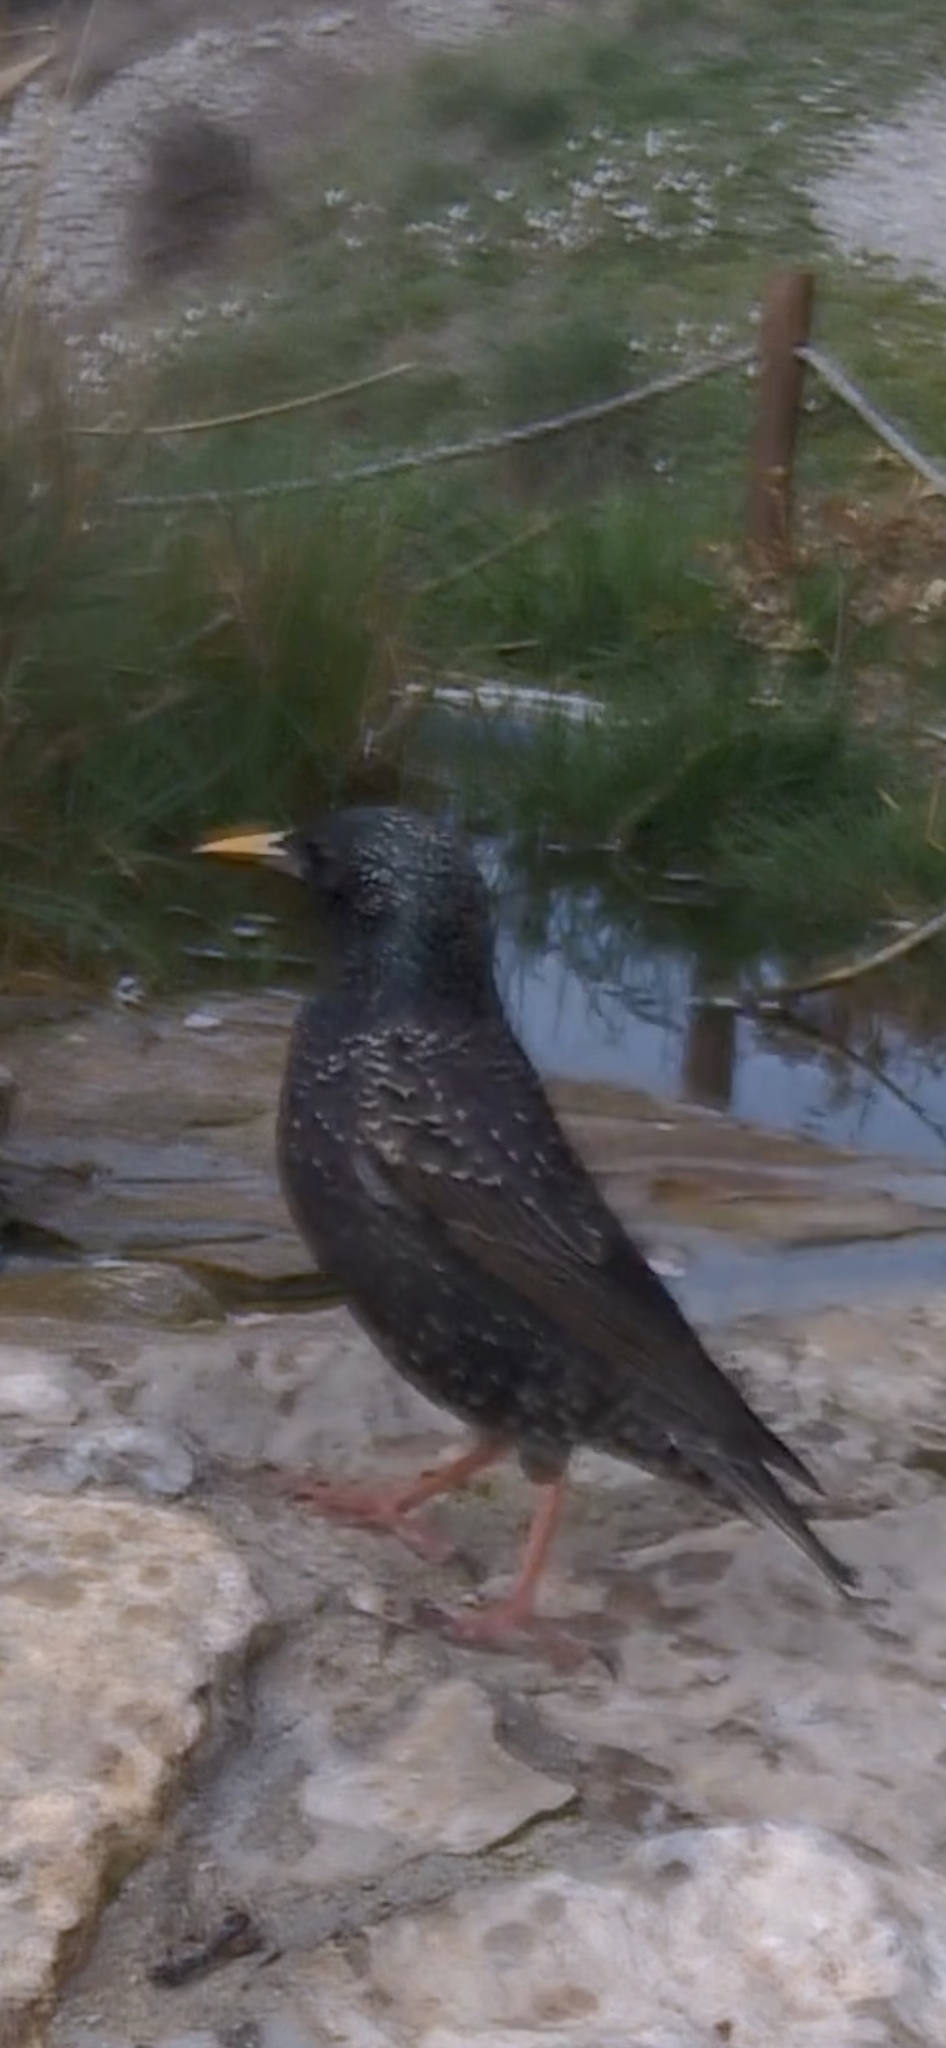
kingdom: Animalia
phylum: Chordata
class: Aves
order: Passeriformes
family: Sturnidae
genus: Sturnus
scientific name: Sturnus vulgaris
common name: Common starling
